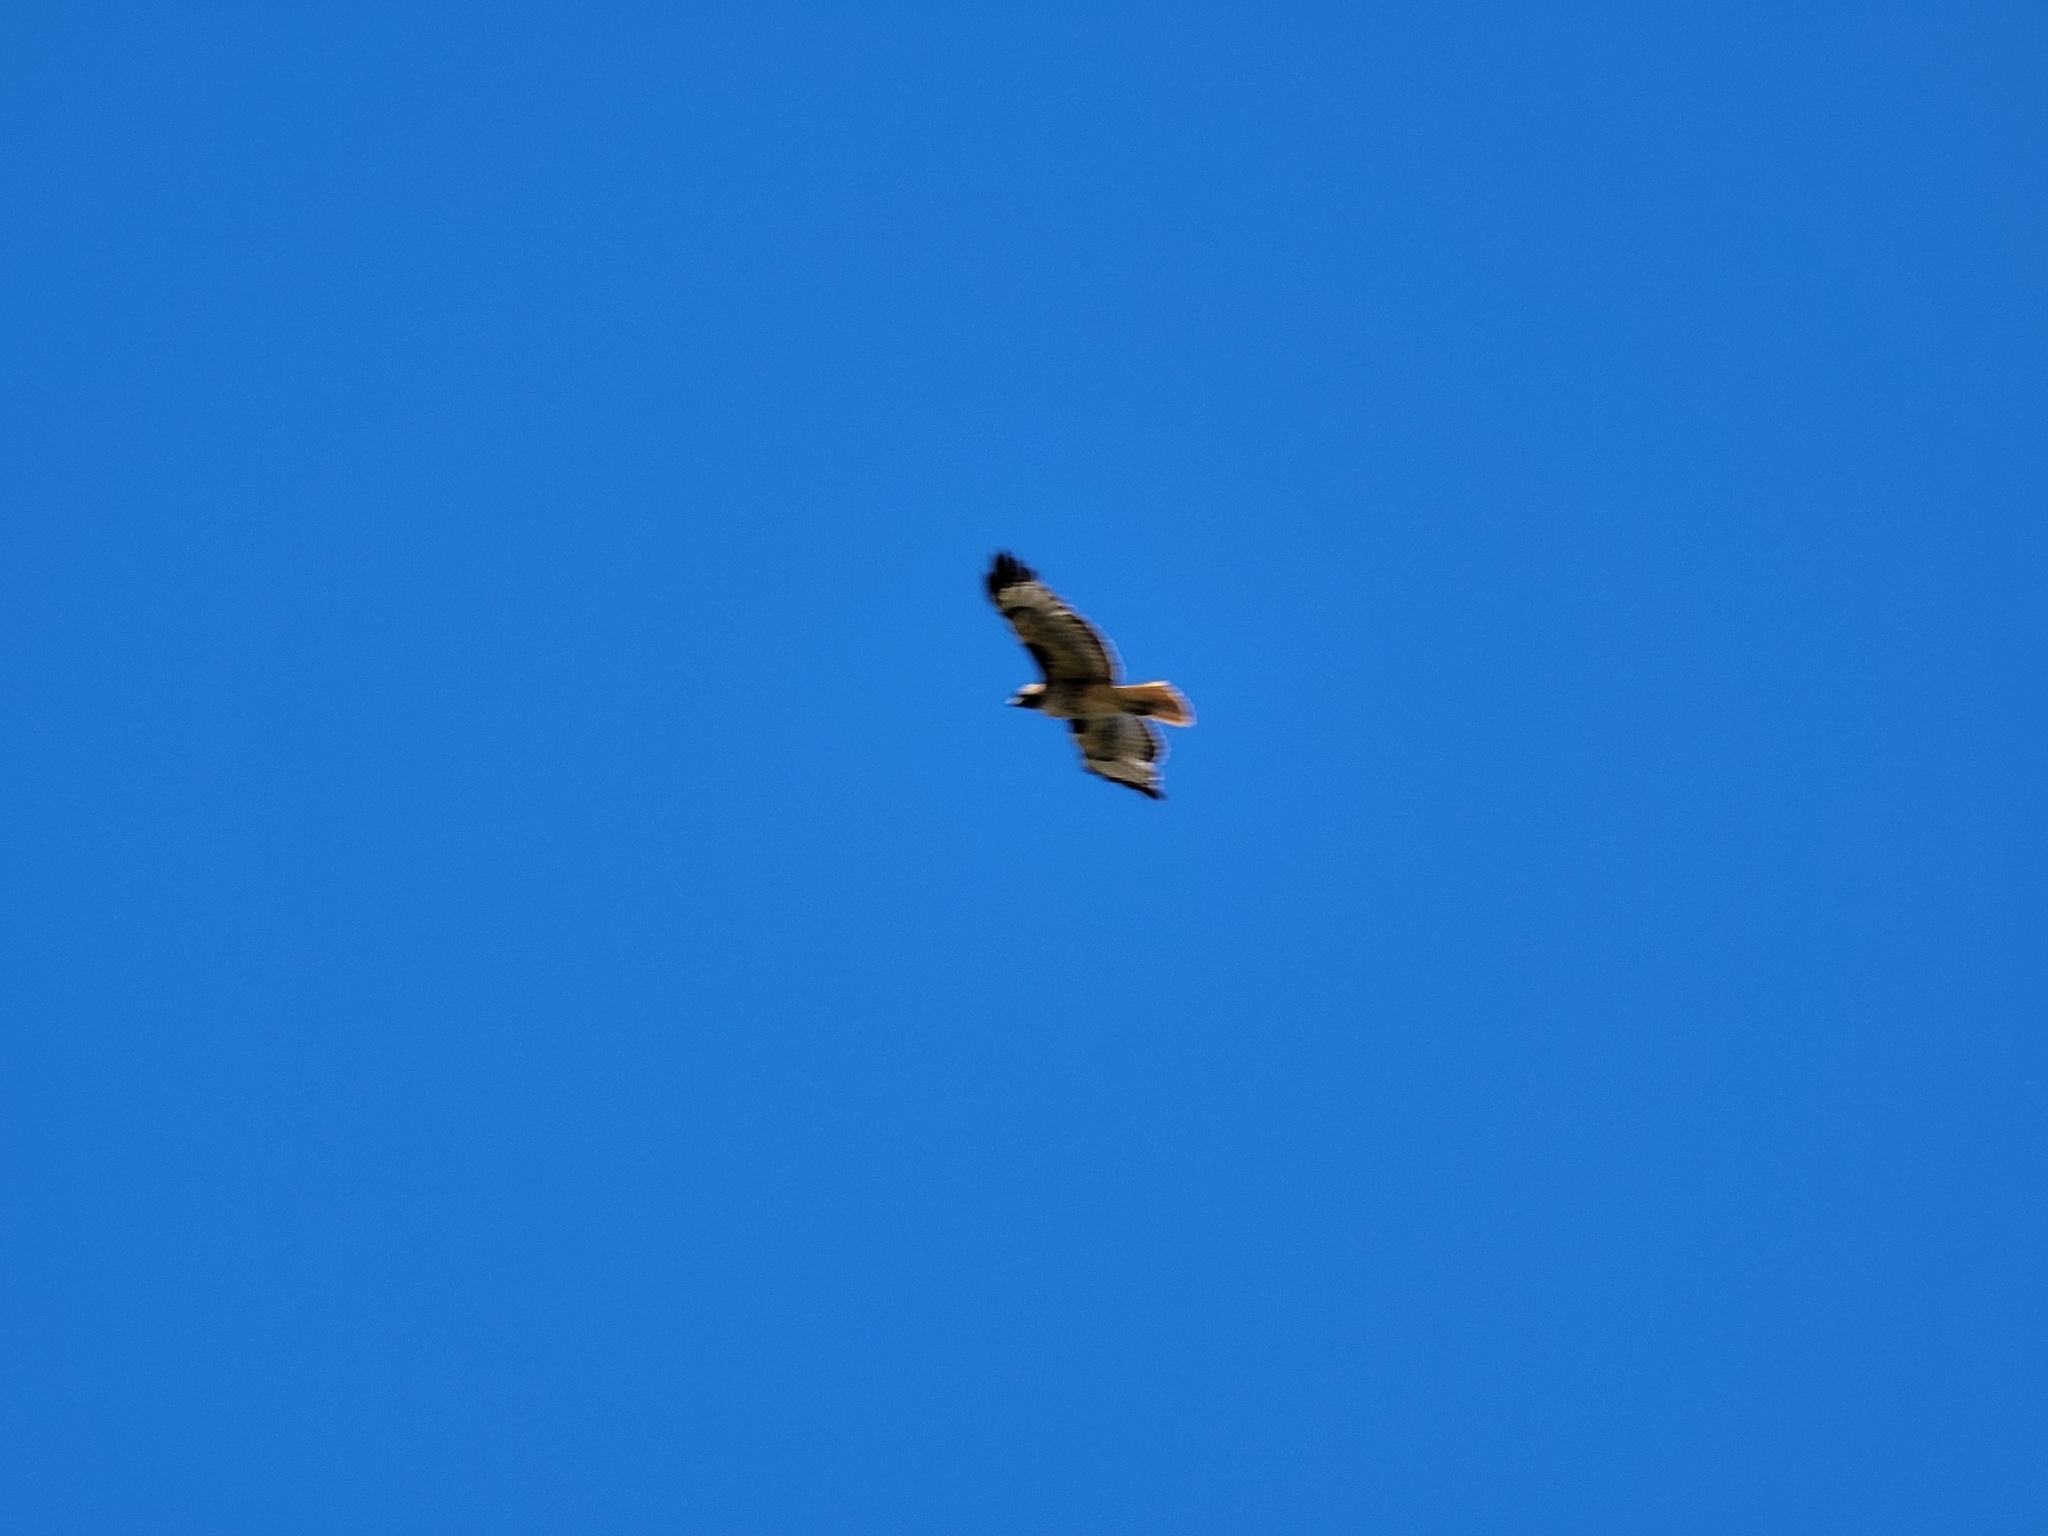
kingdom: Animalia
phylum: Chordata
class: Aves
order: Accipitriformes
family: Accipitridae
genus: Buteo
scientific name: Buteo jamaicensis
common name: Red-tailed hawk
